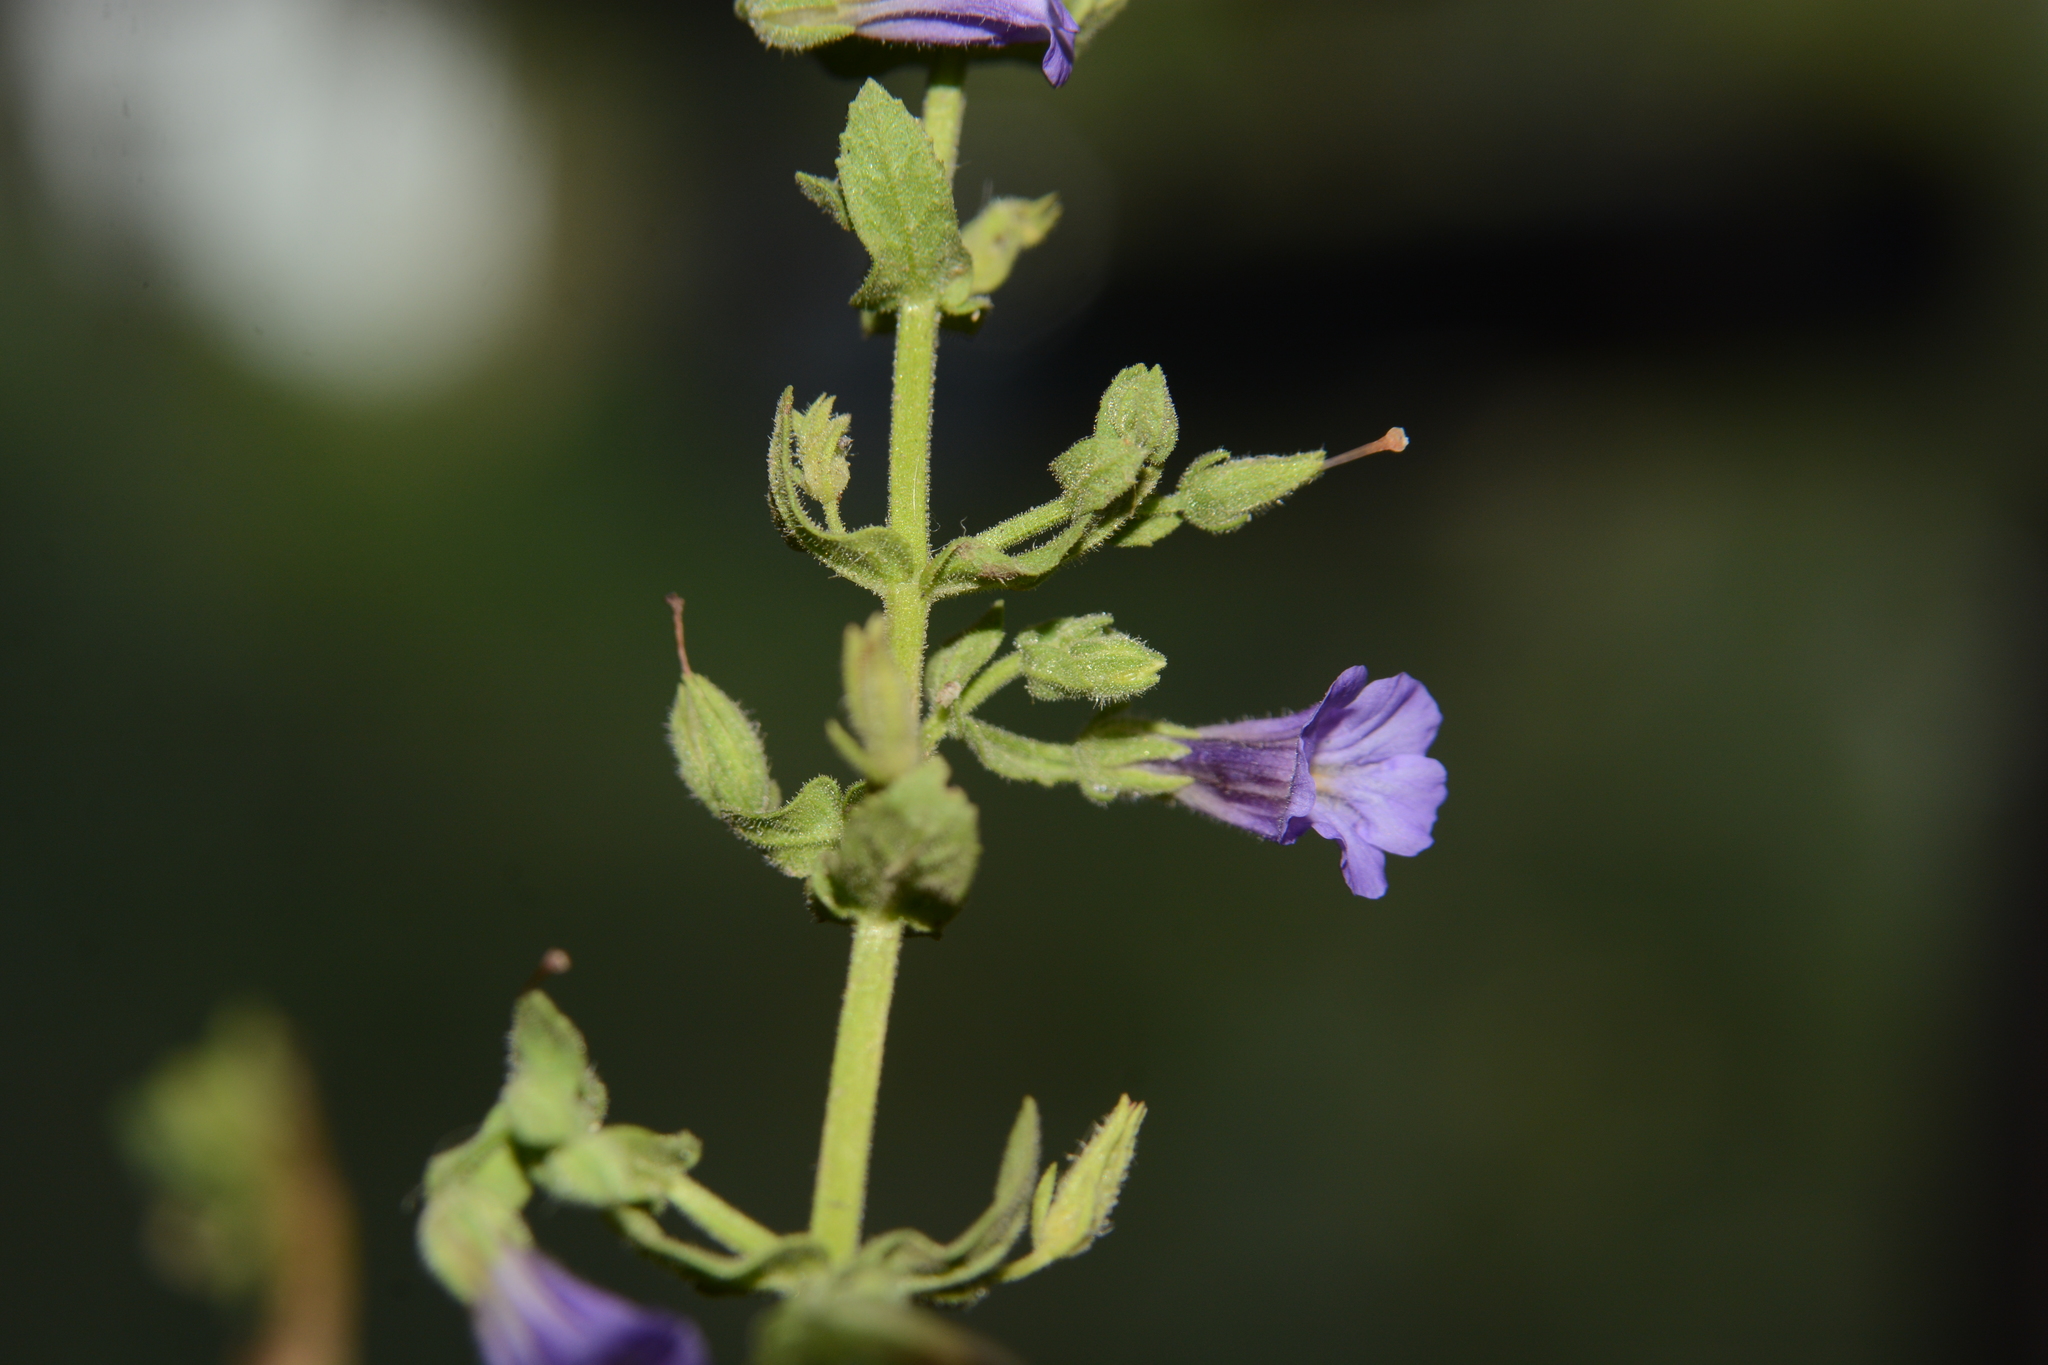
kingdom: Plantae
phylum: Tracheophyta
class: Magnoliopsida
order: Lamiales
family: Plantaginaceae
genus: Stemodia
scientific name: Stemodia viscosa
